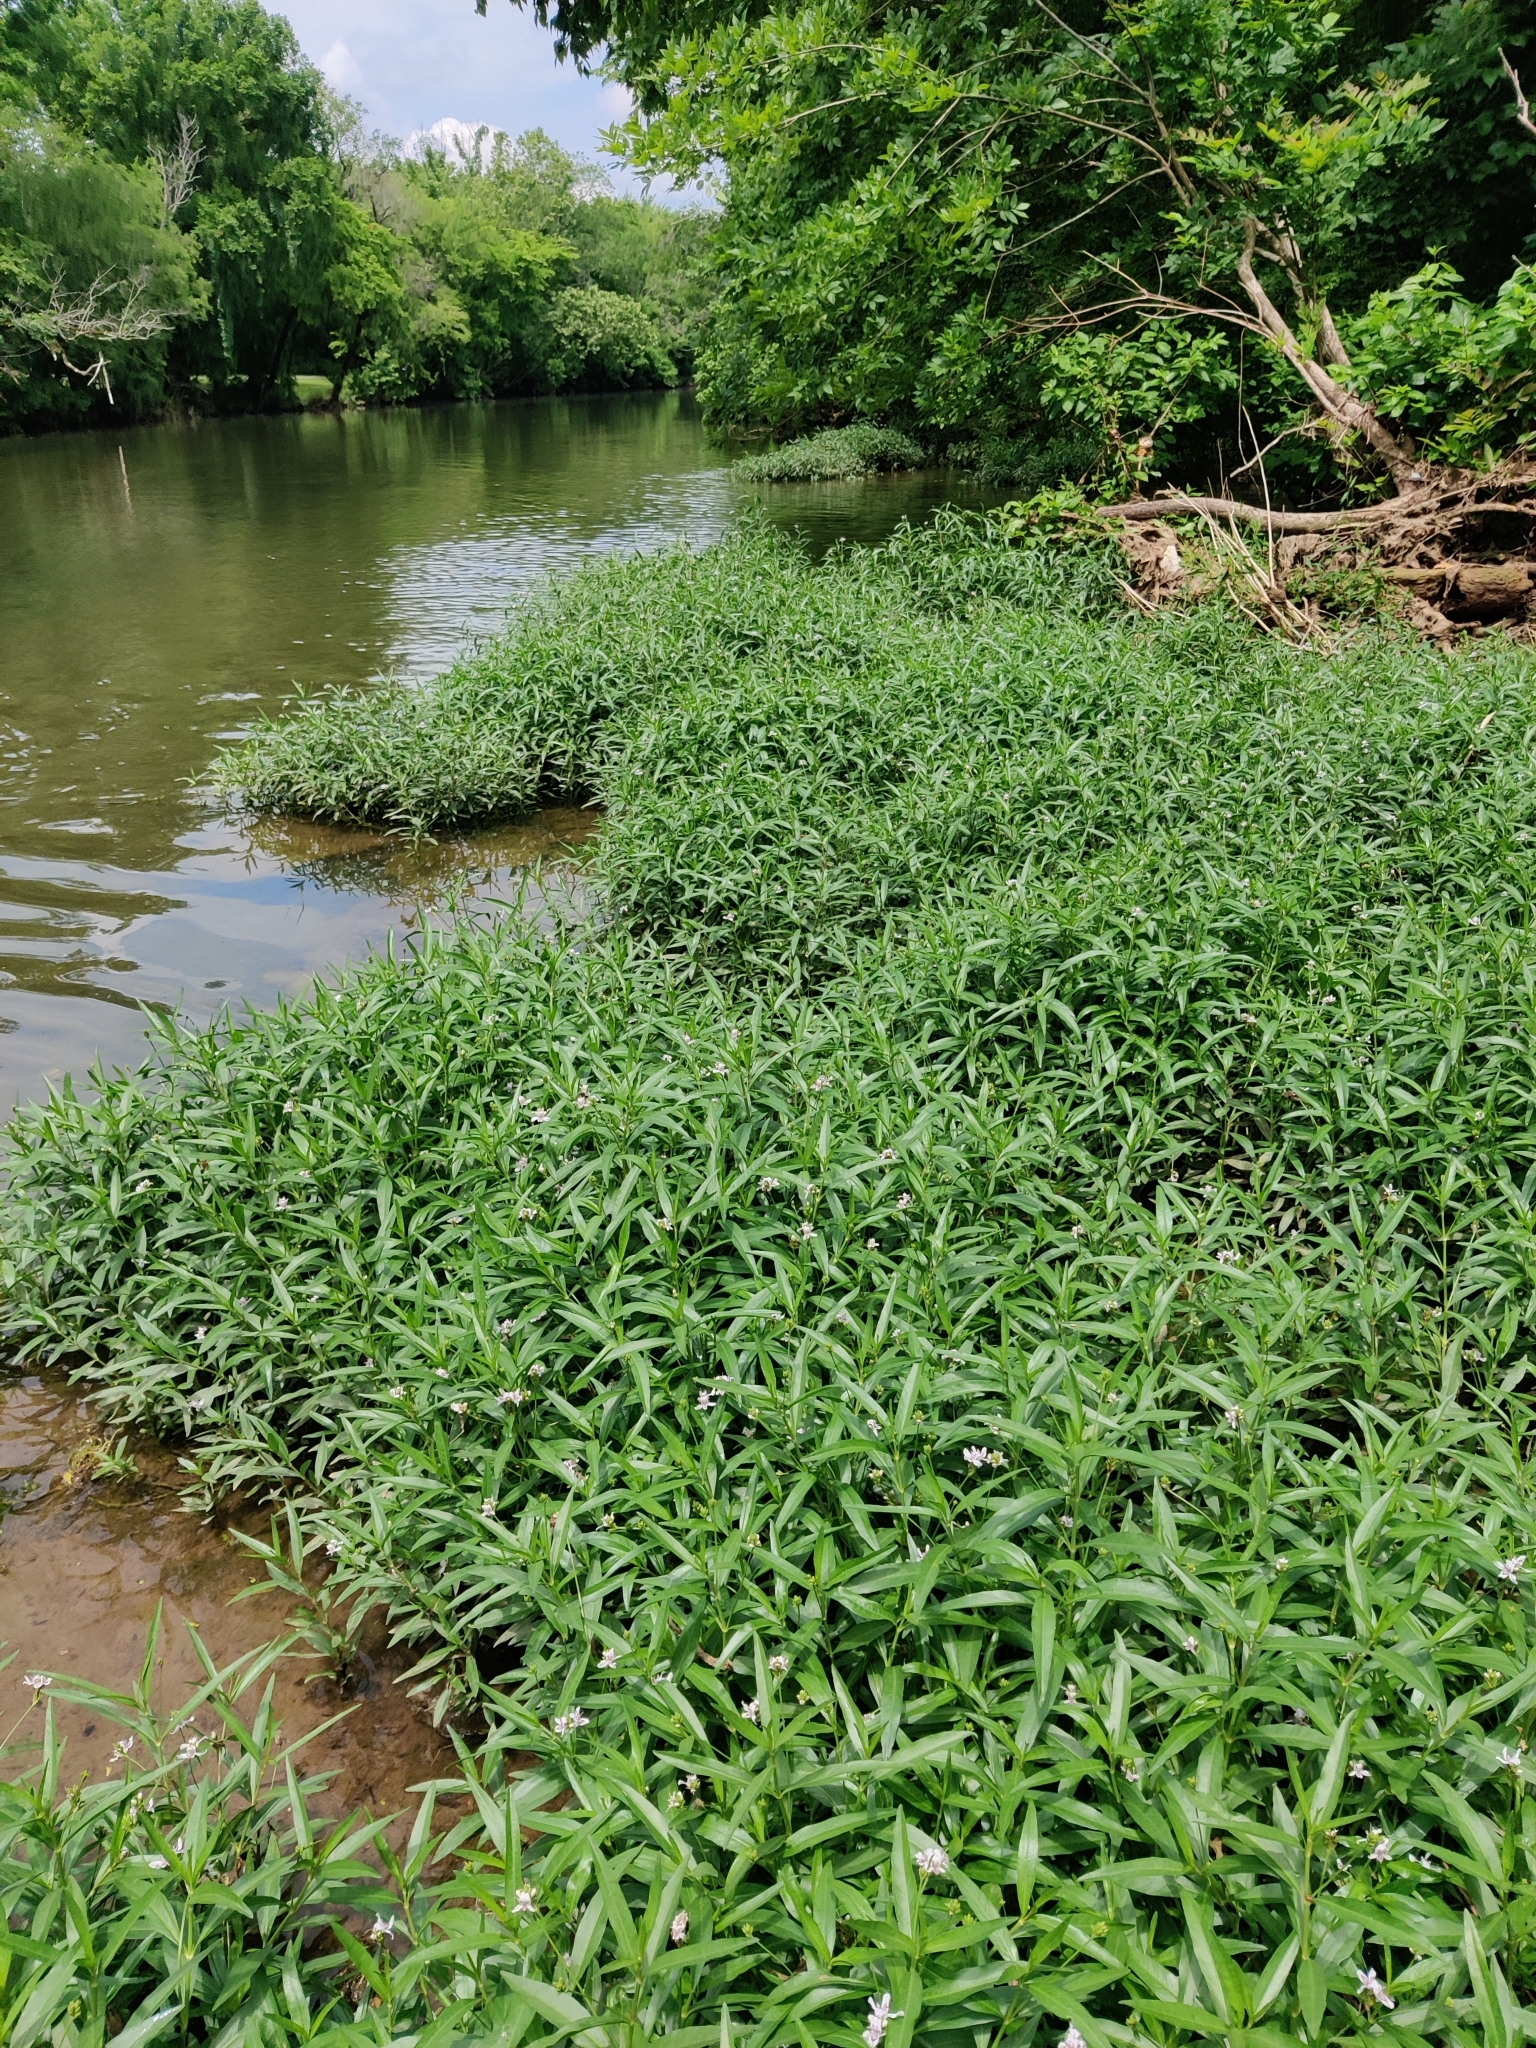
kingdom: Plantae
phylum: Tracheophyta
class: Magnoliopsida
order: Lamiales
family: Acanthaceae
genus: Dianthera
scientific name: Dianthera americana
